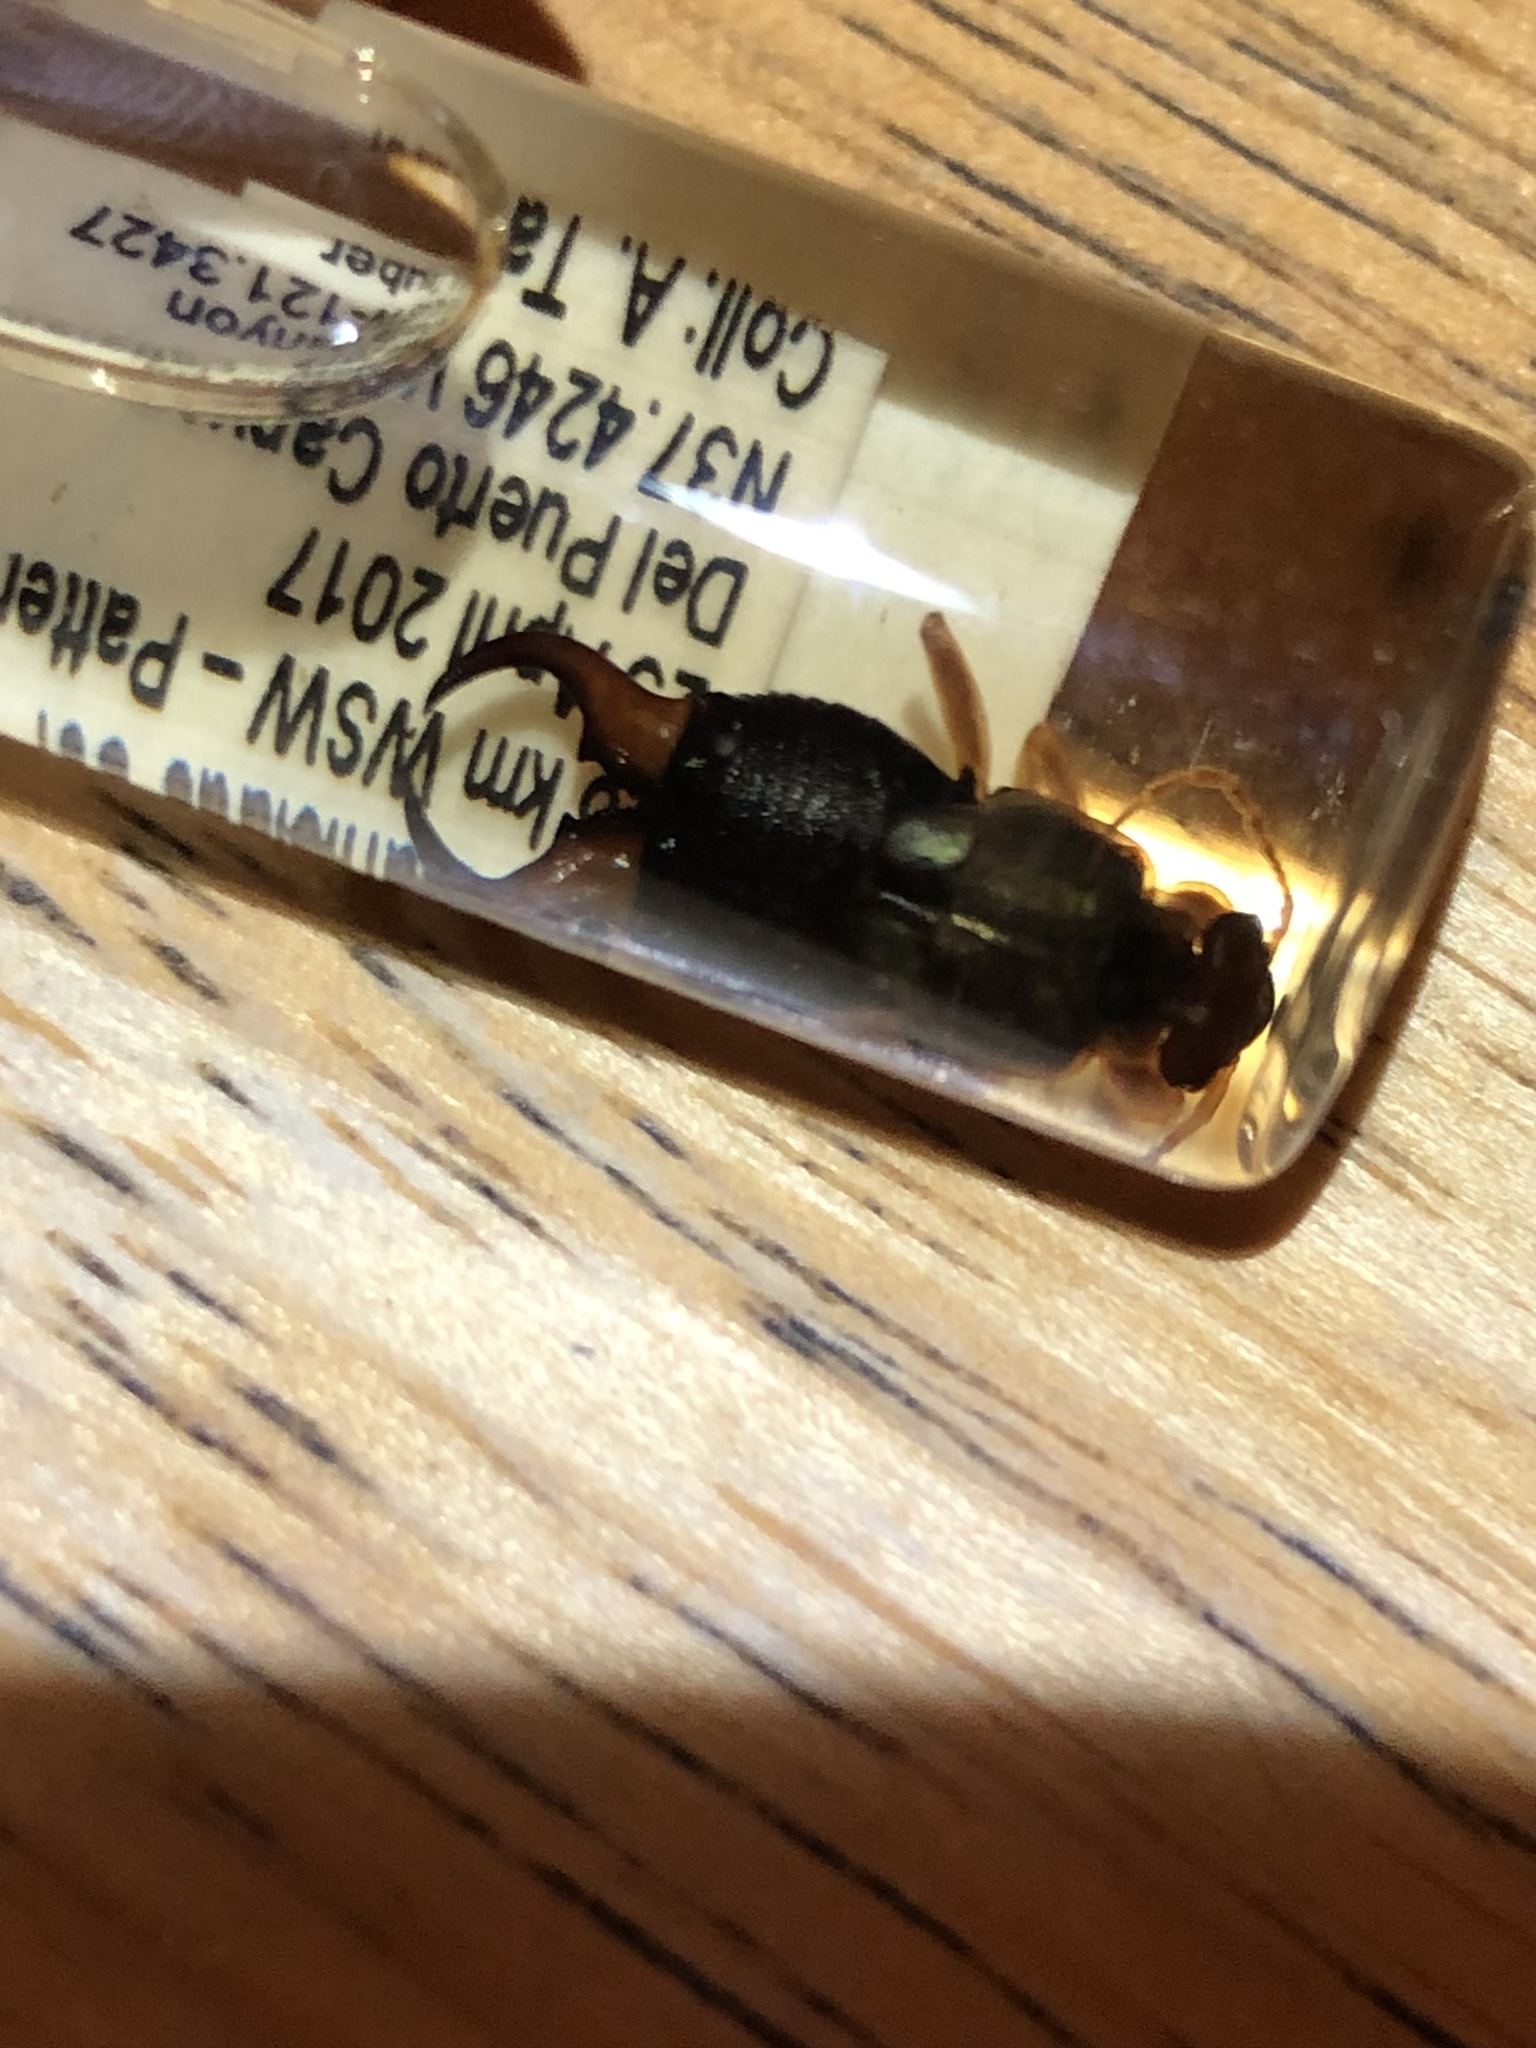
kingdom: Animalia
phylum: Arthropoda
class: Insecta
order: Dermaptera
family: Forficulidae
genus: Forficula
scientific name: Forficula
